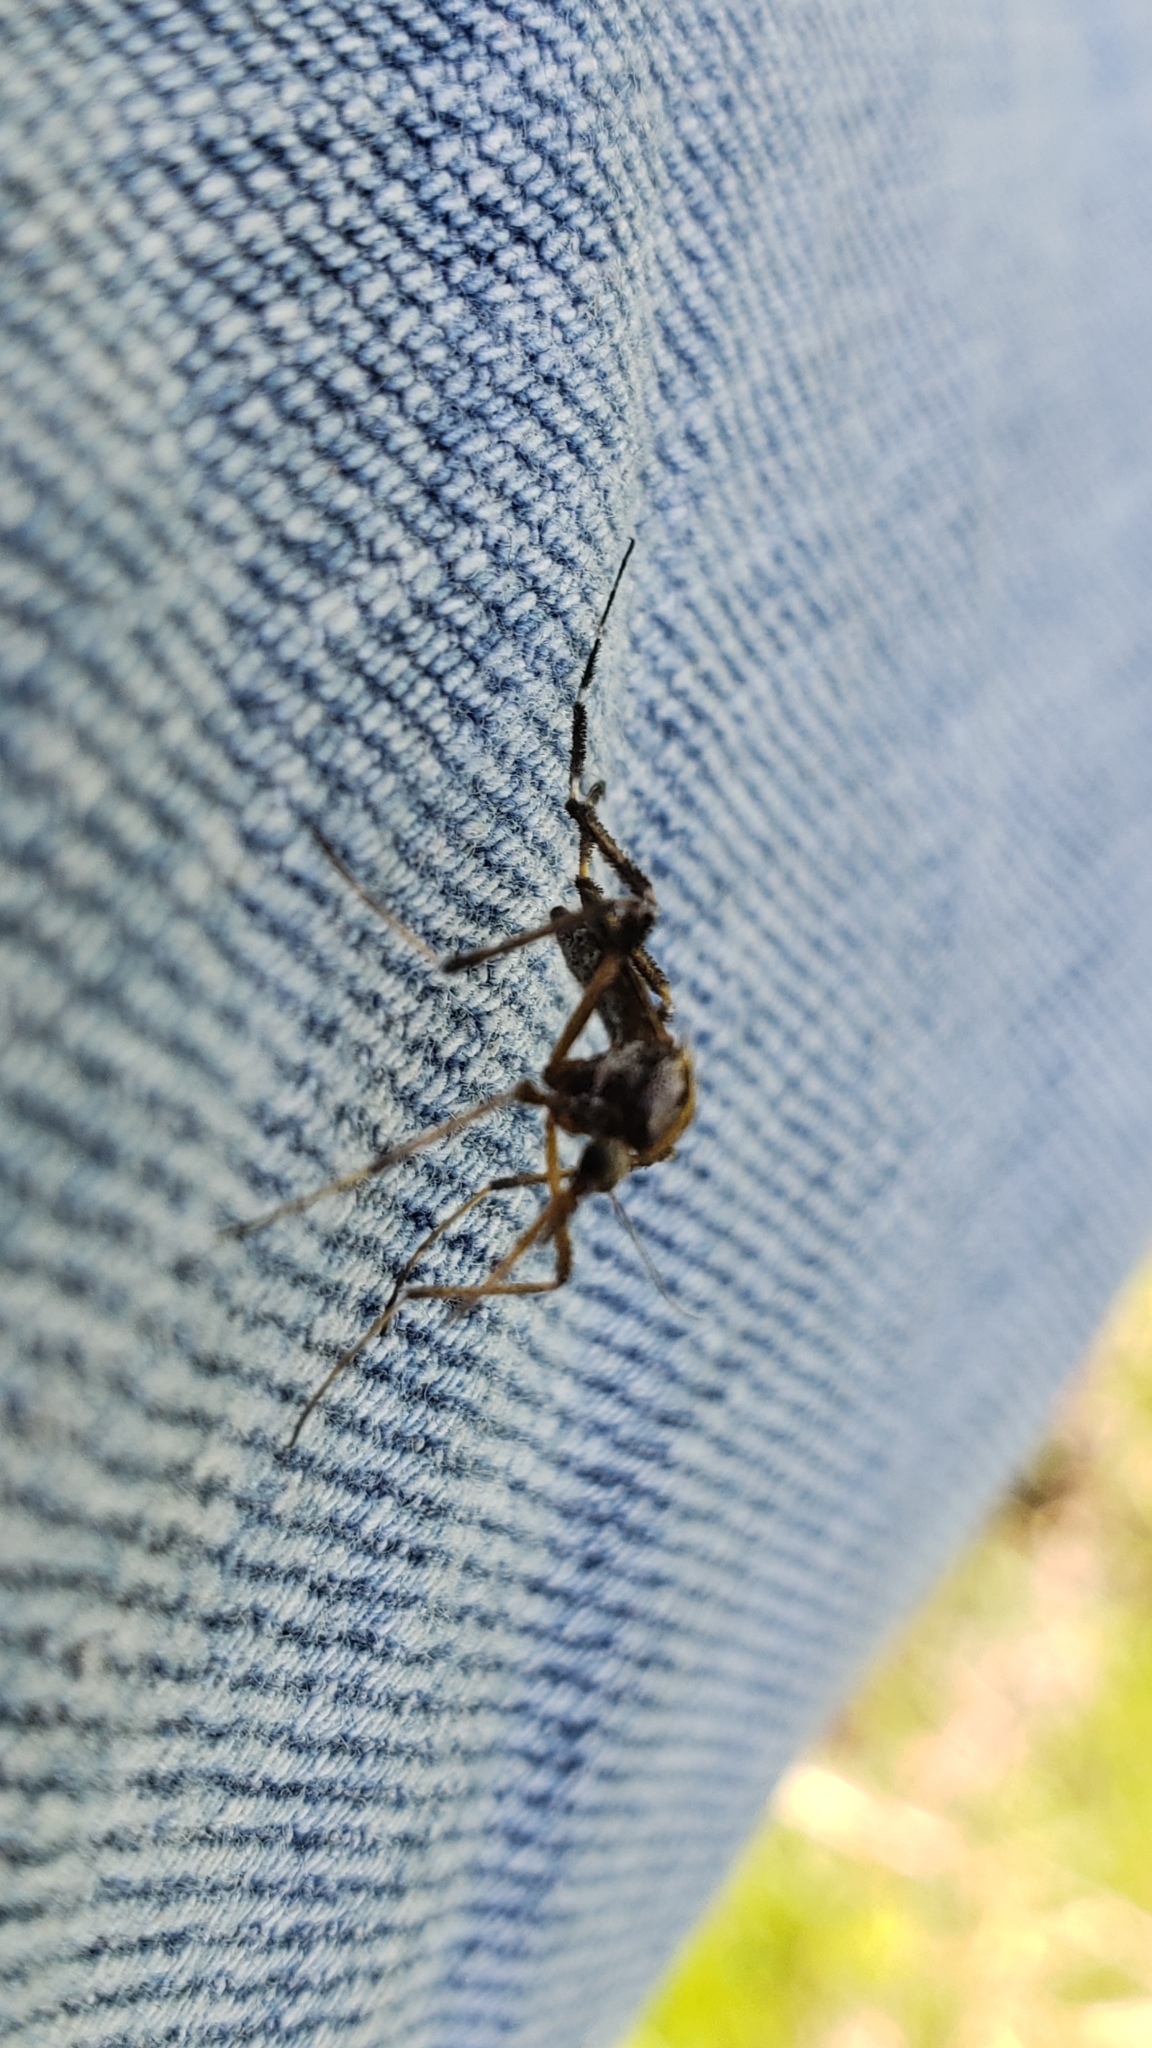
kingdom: Animalia
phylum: Arthropoda
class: Insecta
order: Diptera
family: Culicidae
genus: Psorophora
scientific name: Psorophora ciliata
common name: Gallinipper
